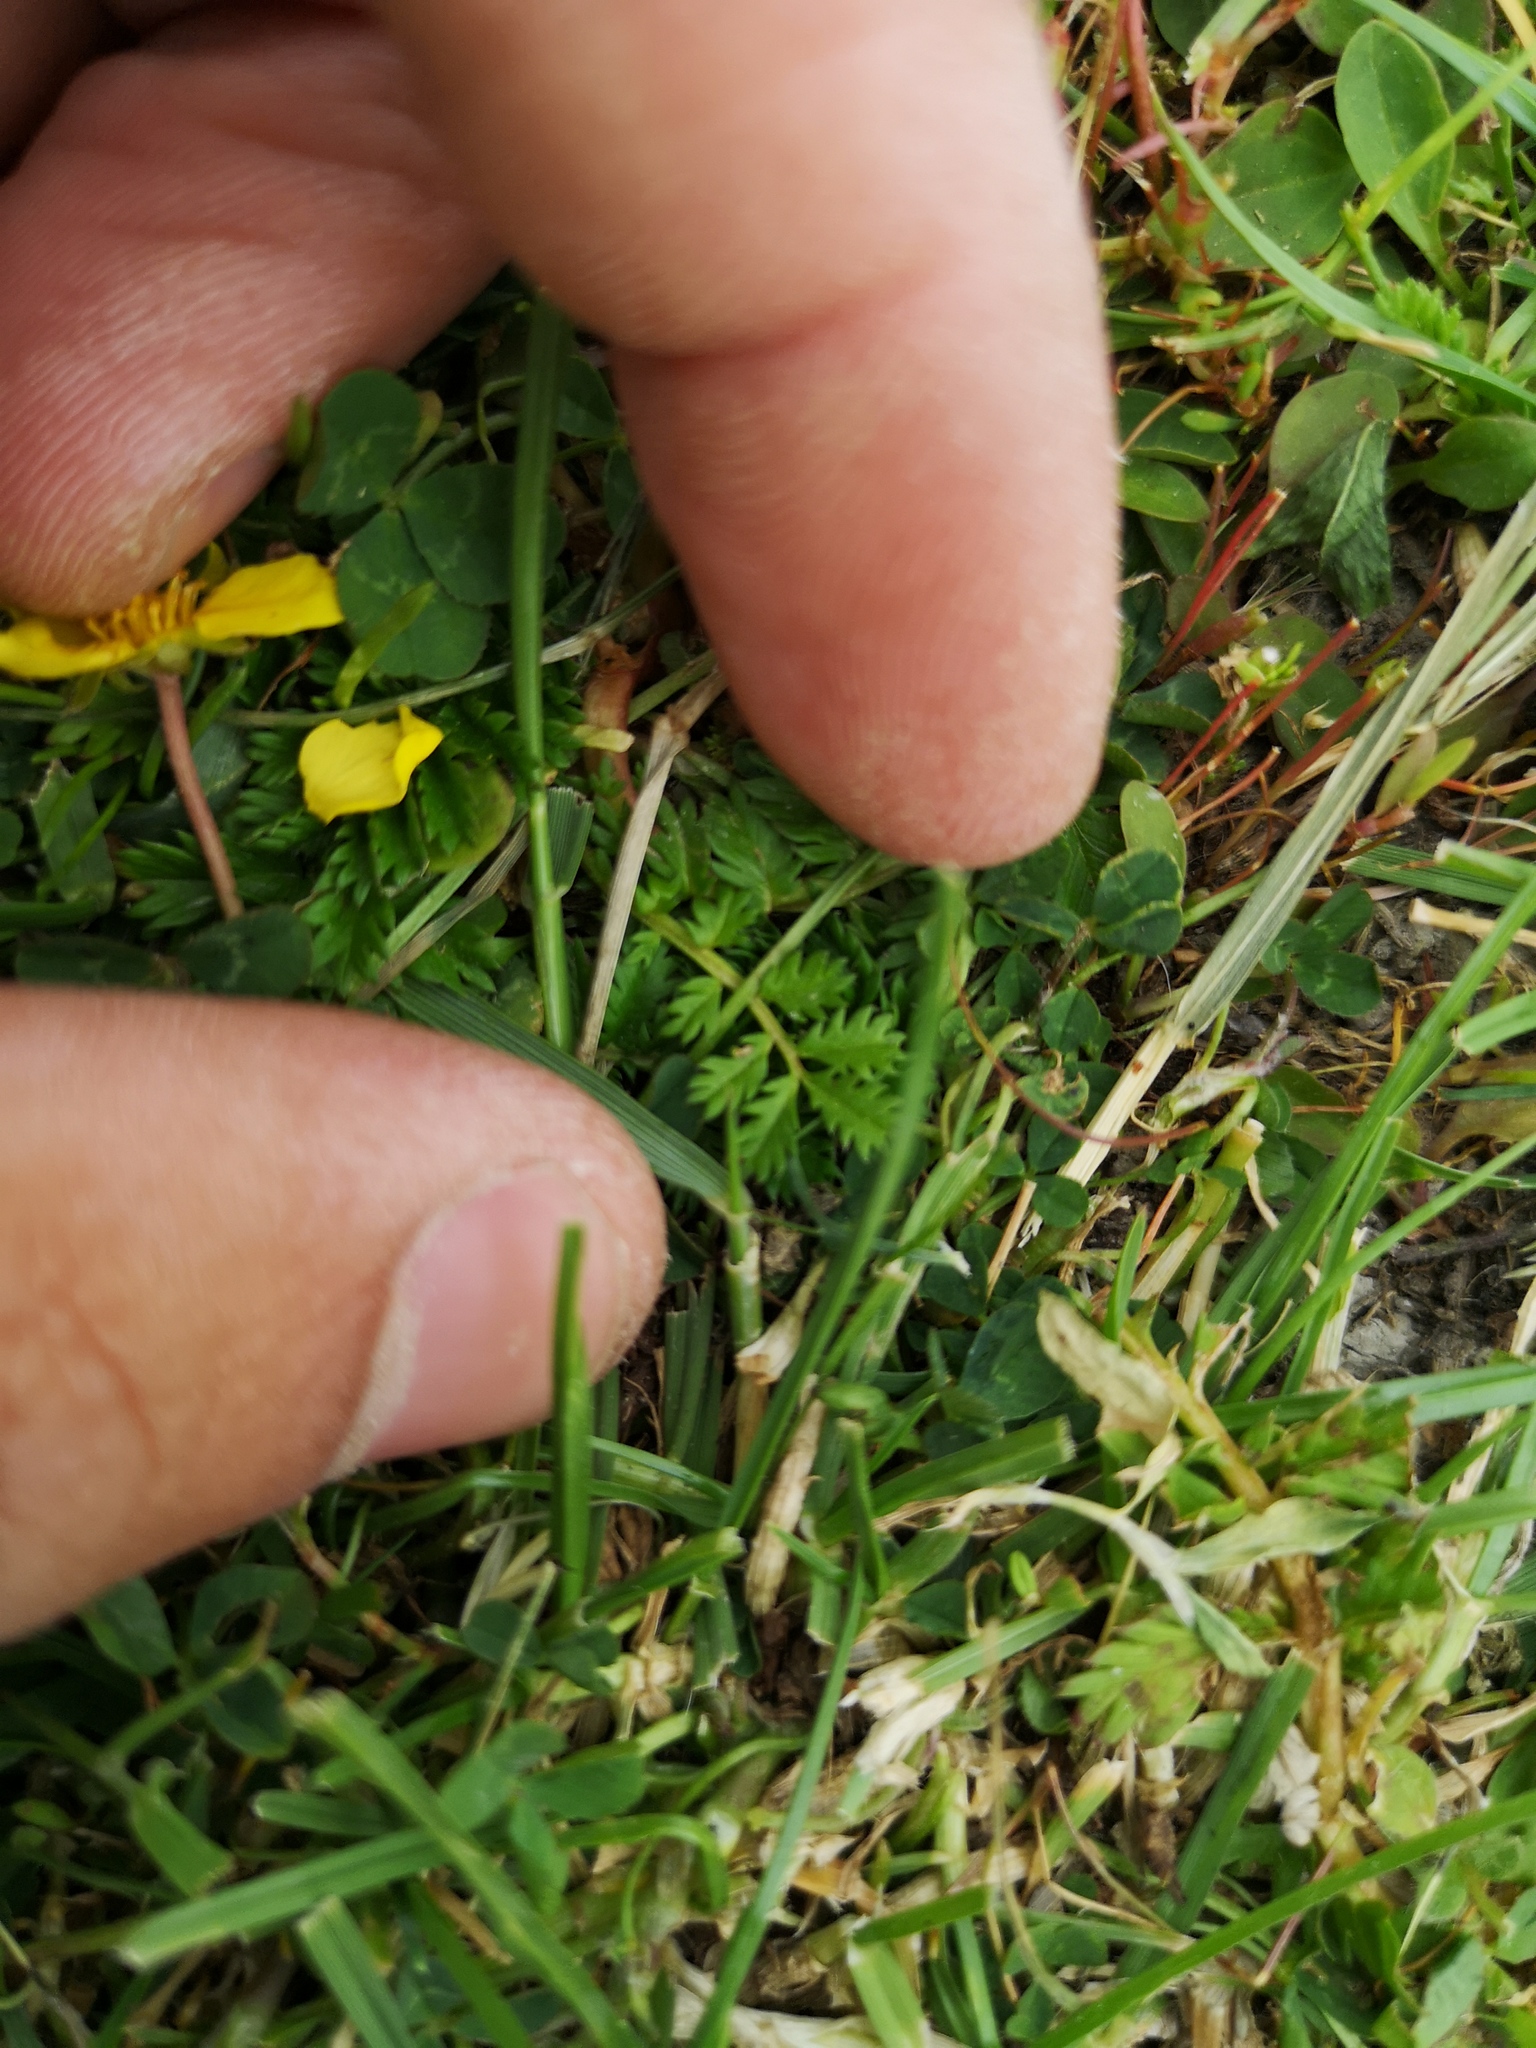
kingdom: Plantae
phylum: Tracheophyta
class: Magnoliopsida
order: Rosales
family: Rosaceae
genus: Argentina
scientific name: Argentina anserina
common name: Common silverweed
